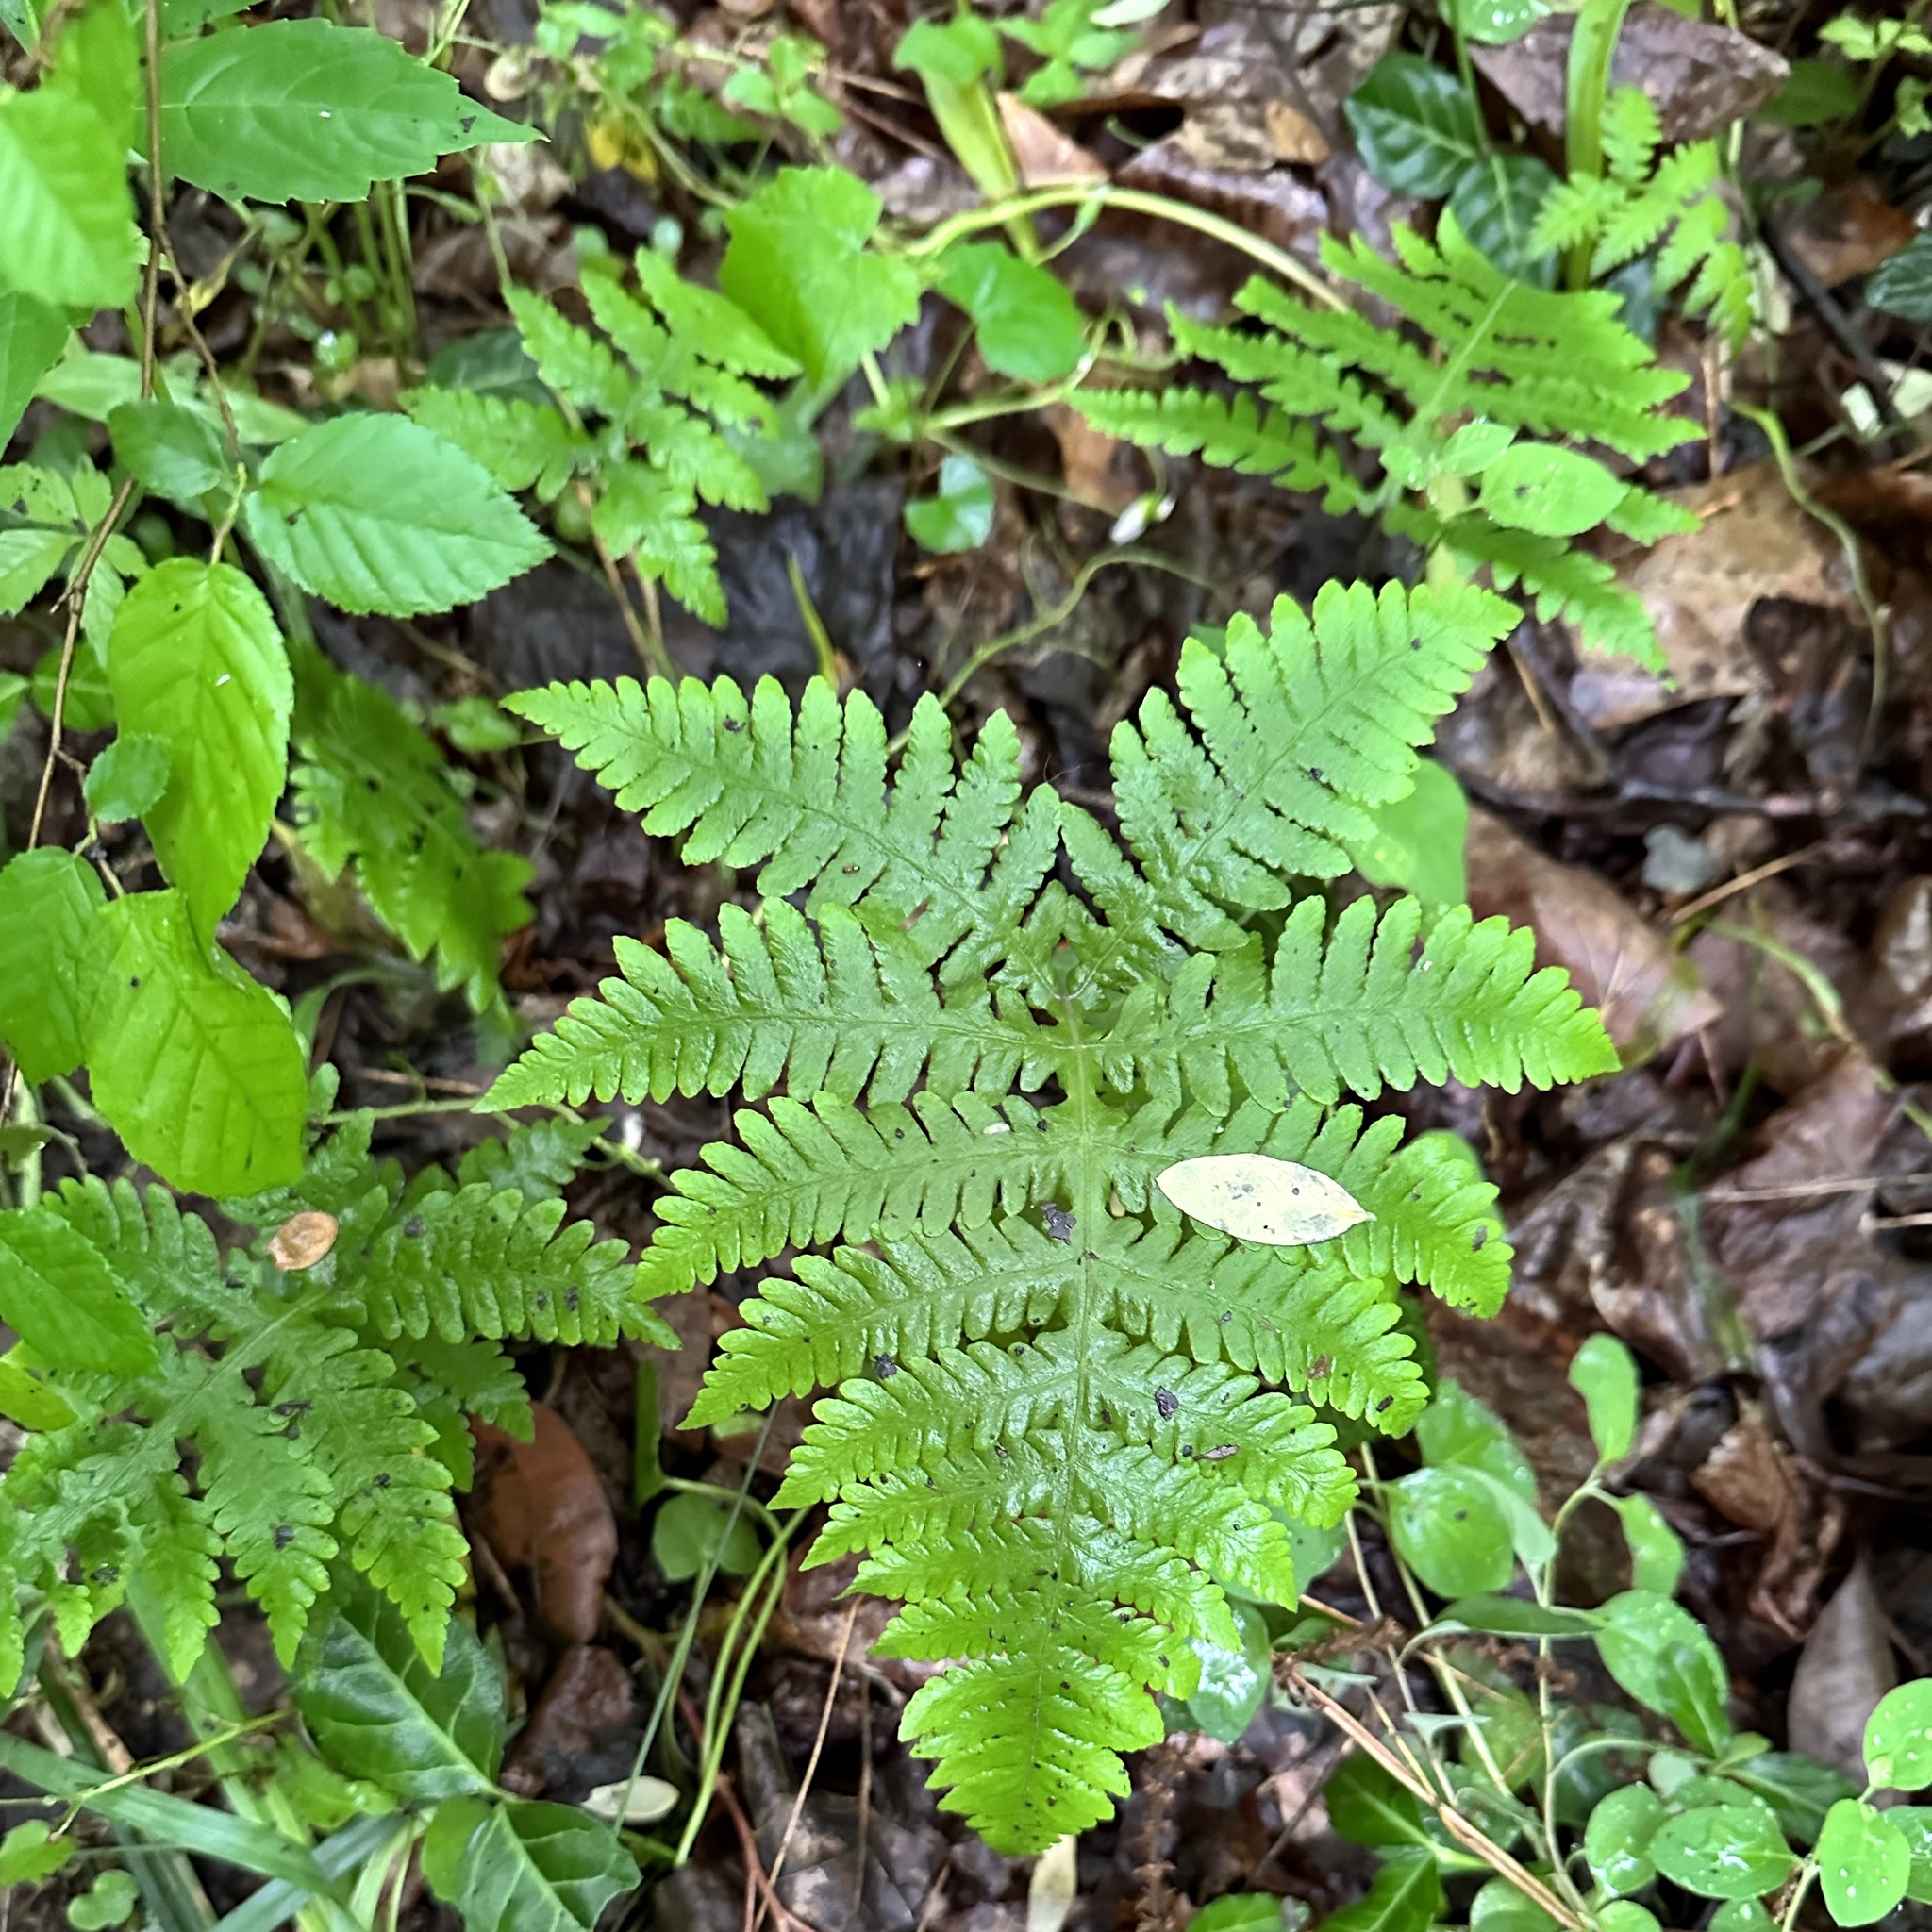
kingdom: Plantae
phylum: Tracheophyta
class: Polypodiopsida
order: Polypodiales
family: Thelypteridaceae
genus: Phegopteris
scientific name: Phegopteris hexagonoptera
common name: Broad beech fern
